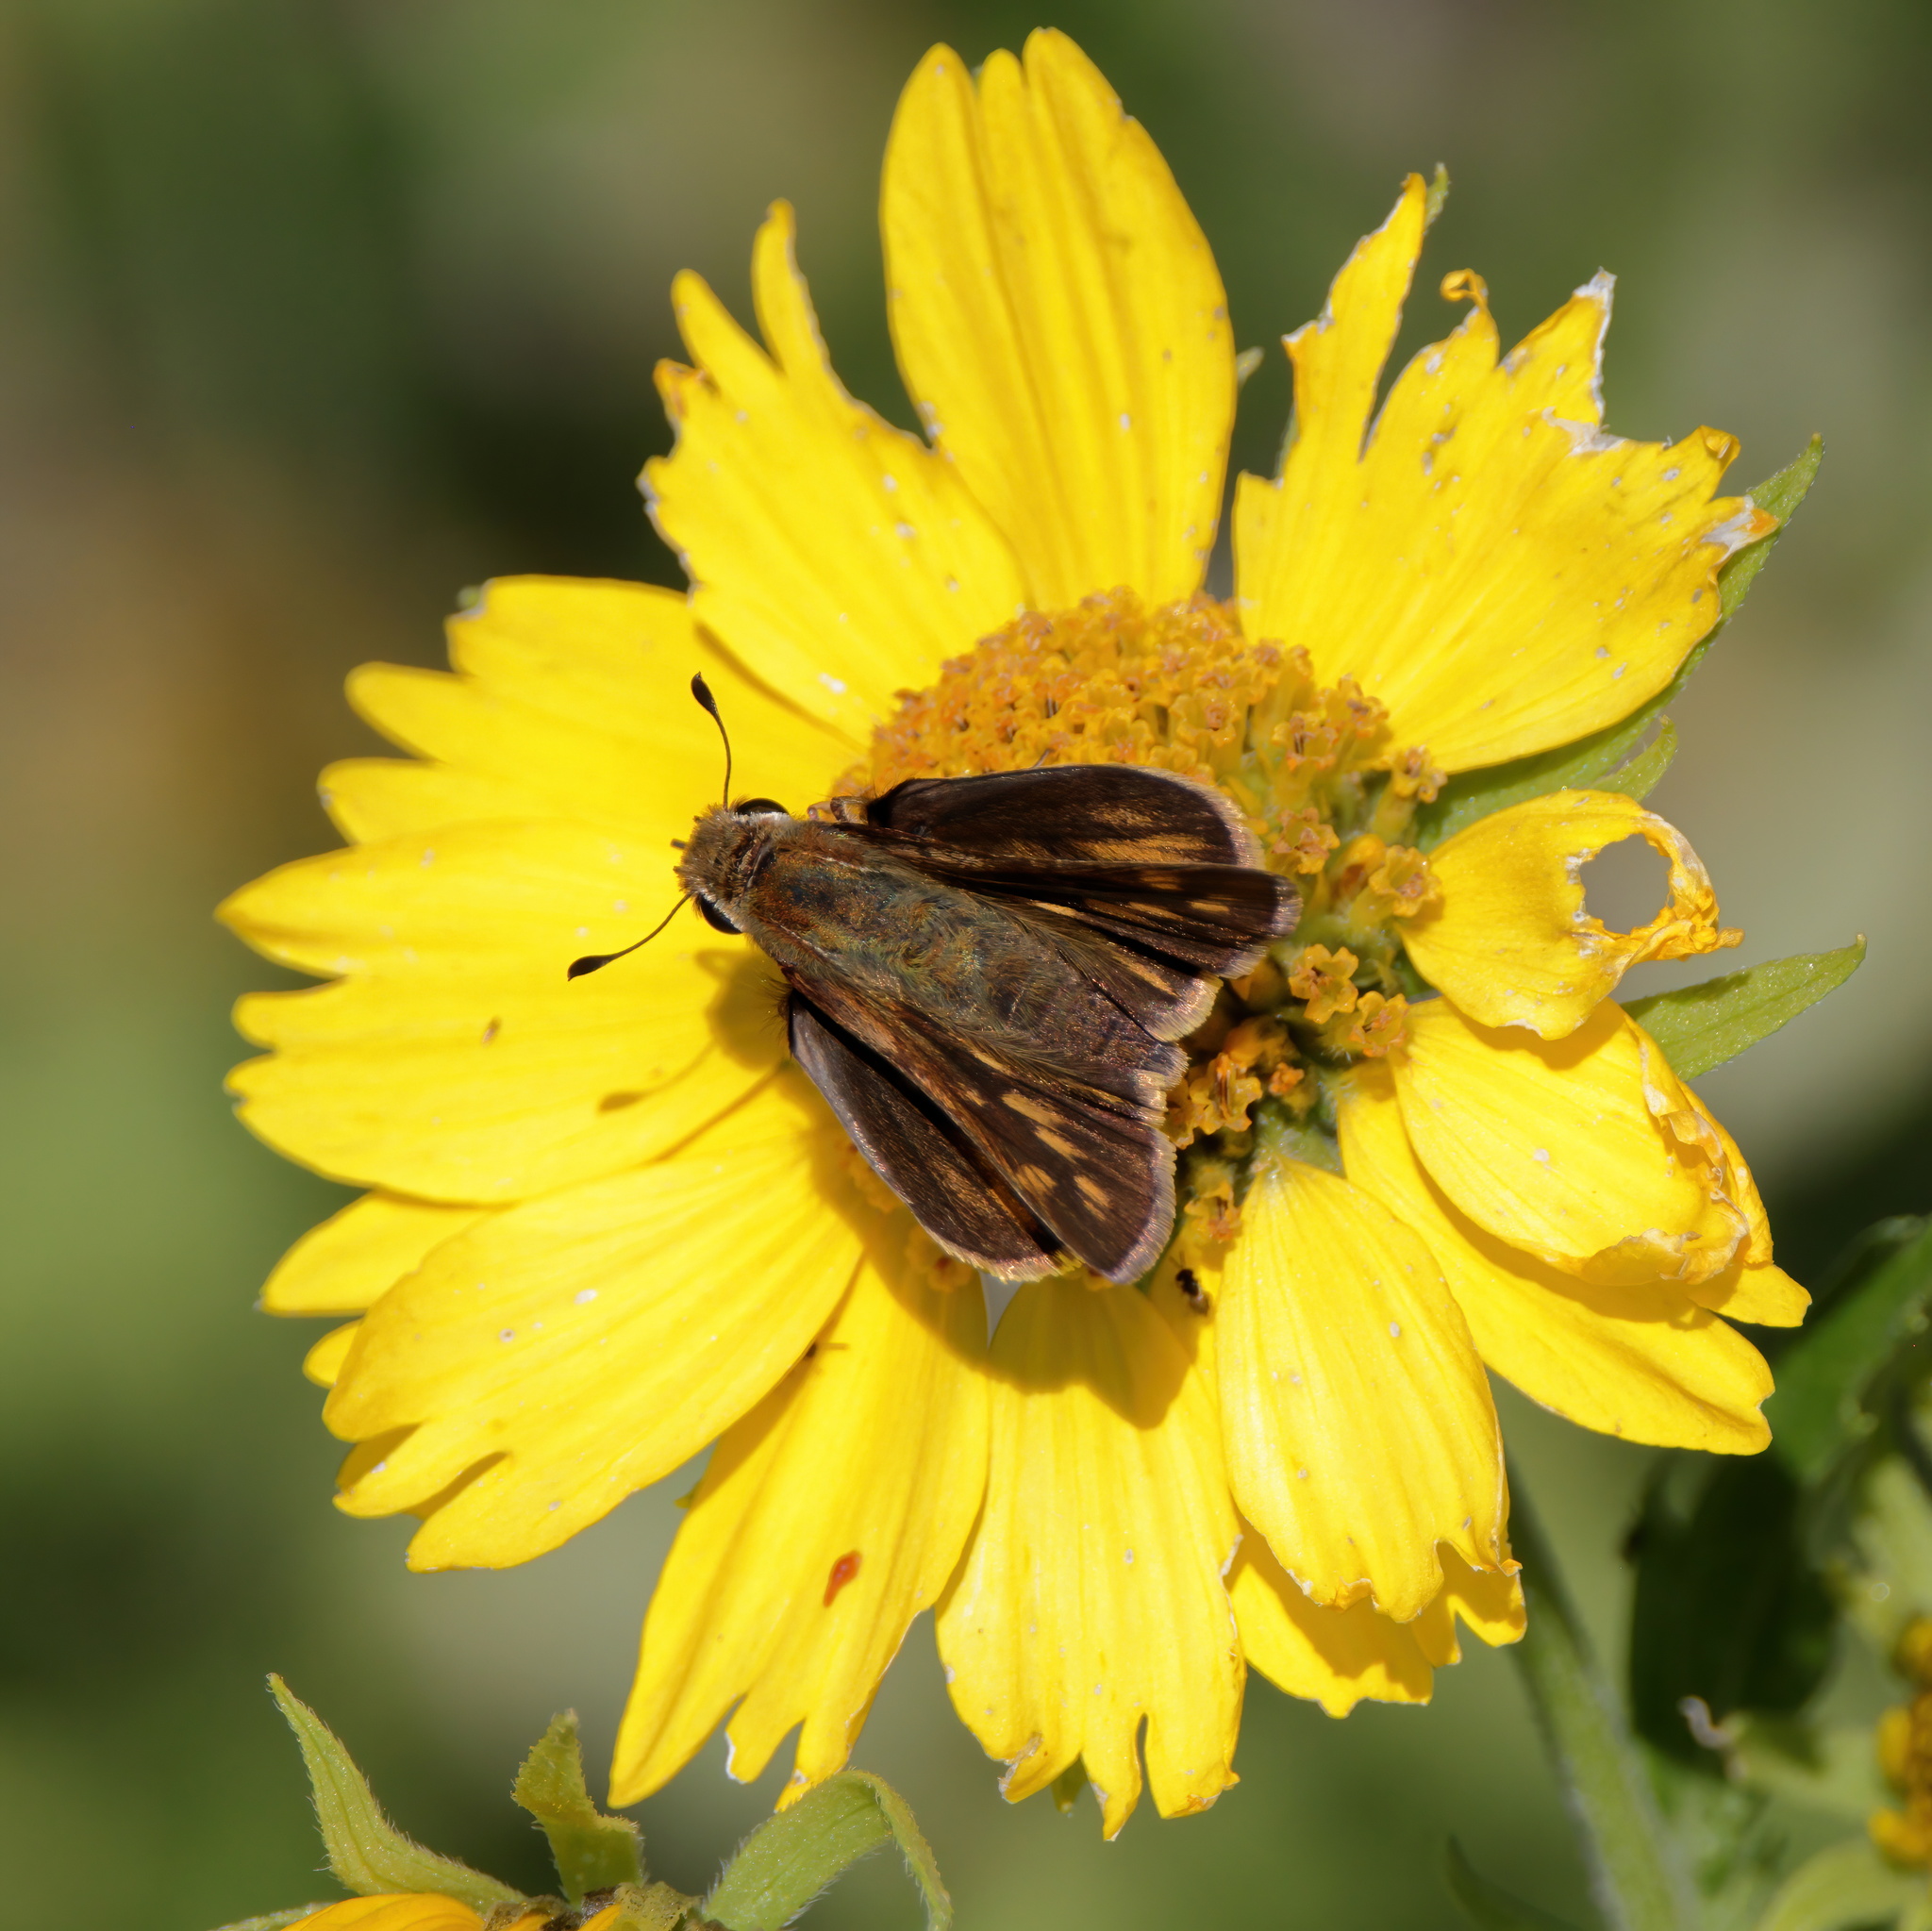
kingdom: Animalia
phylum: Arthropoda
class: Insecta
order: Lepidoptera
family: Hesperiidae
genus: Hylephila
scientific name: Hylephila phyleus
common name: Fiery skipper
